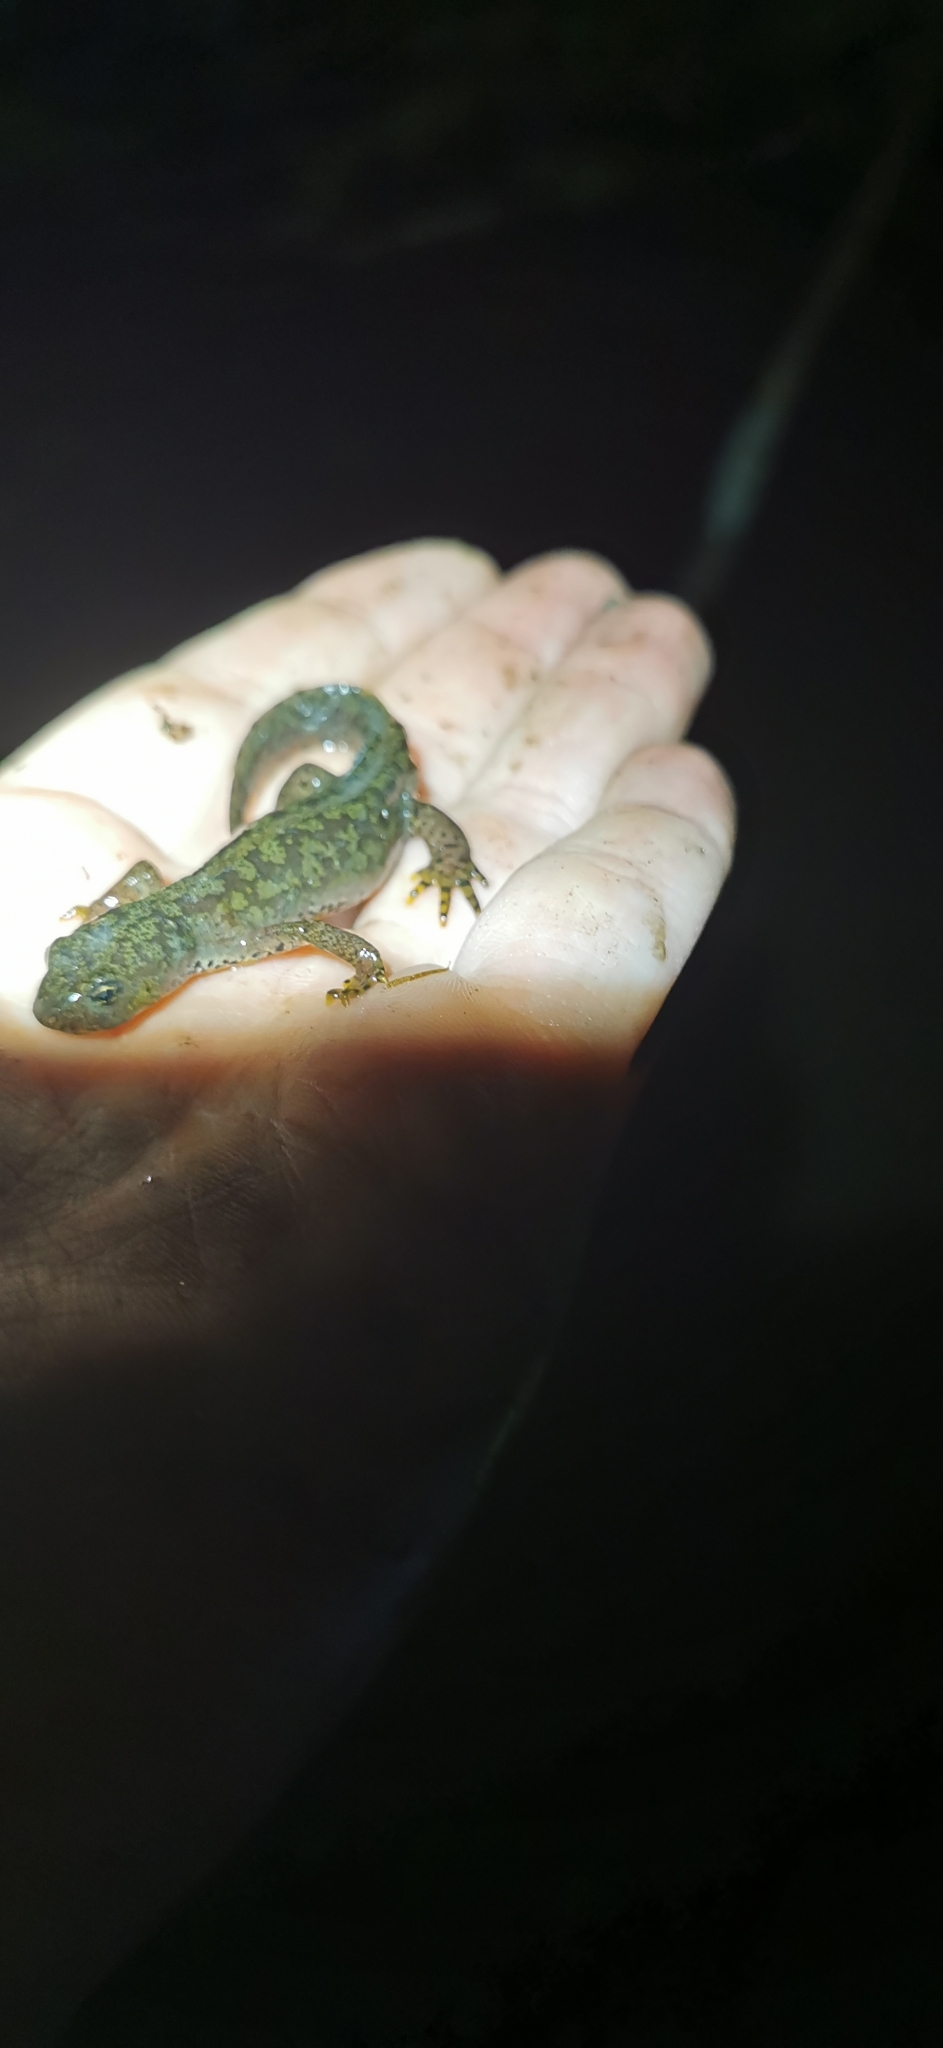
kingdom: Animalia
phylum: Chordata
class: Amphibia
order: Caudata
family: Salamandridae
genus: Ichthyosaura
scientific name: Ichthyosaura alpestris
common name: Alpine newt
